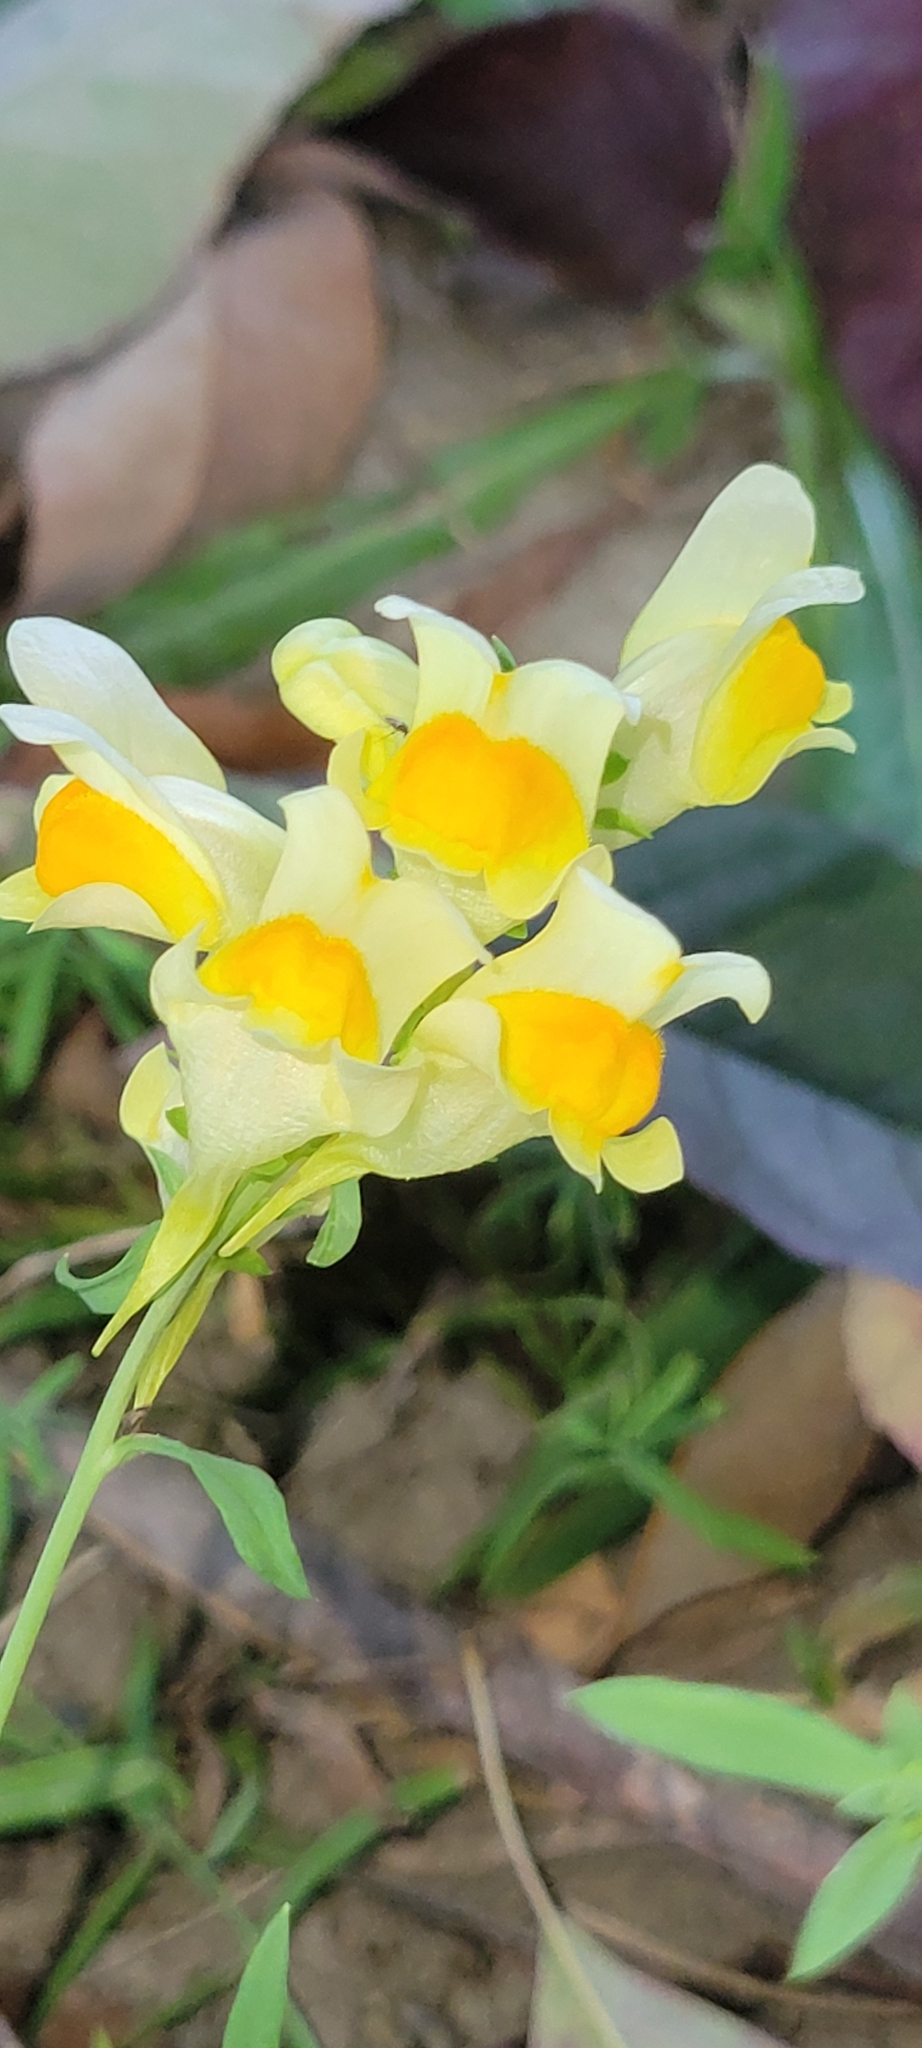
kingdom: Plantae
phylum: Tracheophyta
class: Magnoliopsida
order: Lamiales
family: Plantaginaceae
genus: Linaria
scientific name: Linaria vulgaris
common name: Butter and eggs
